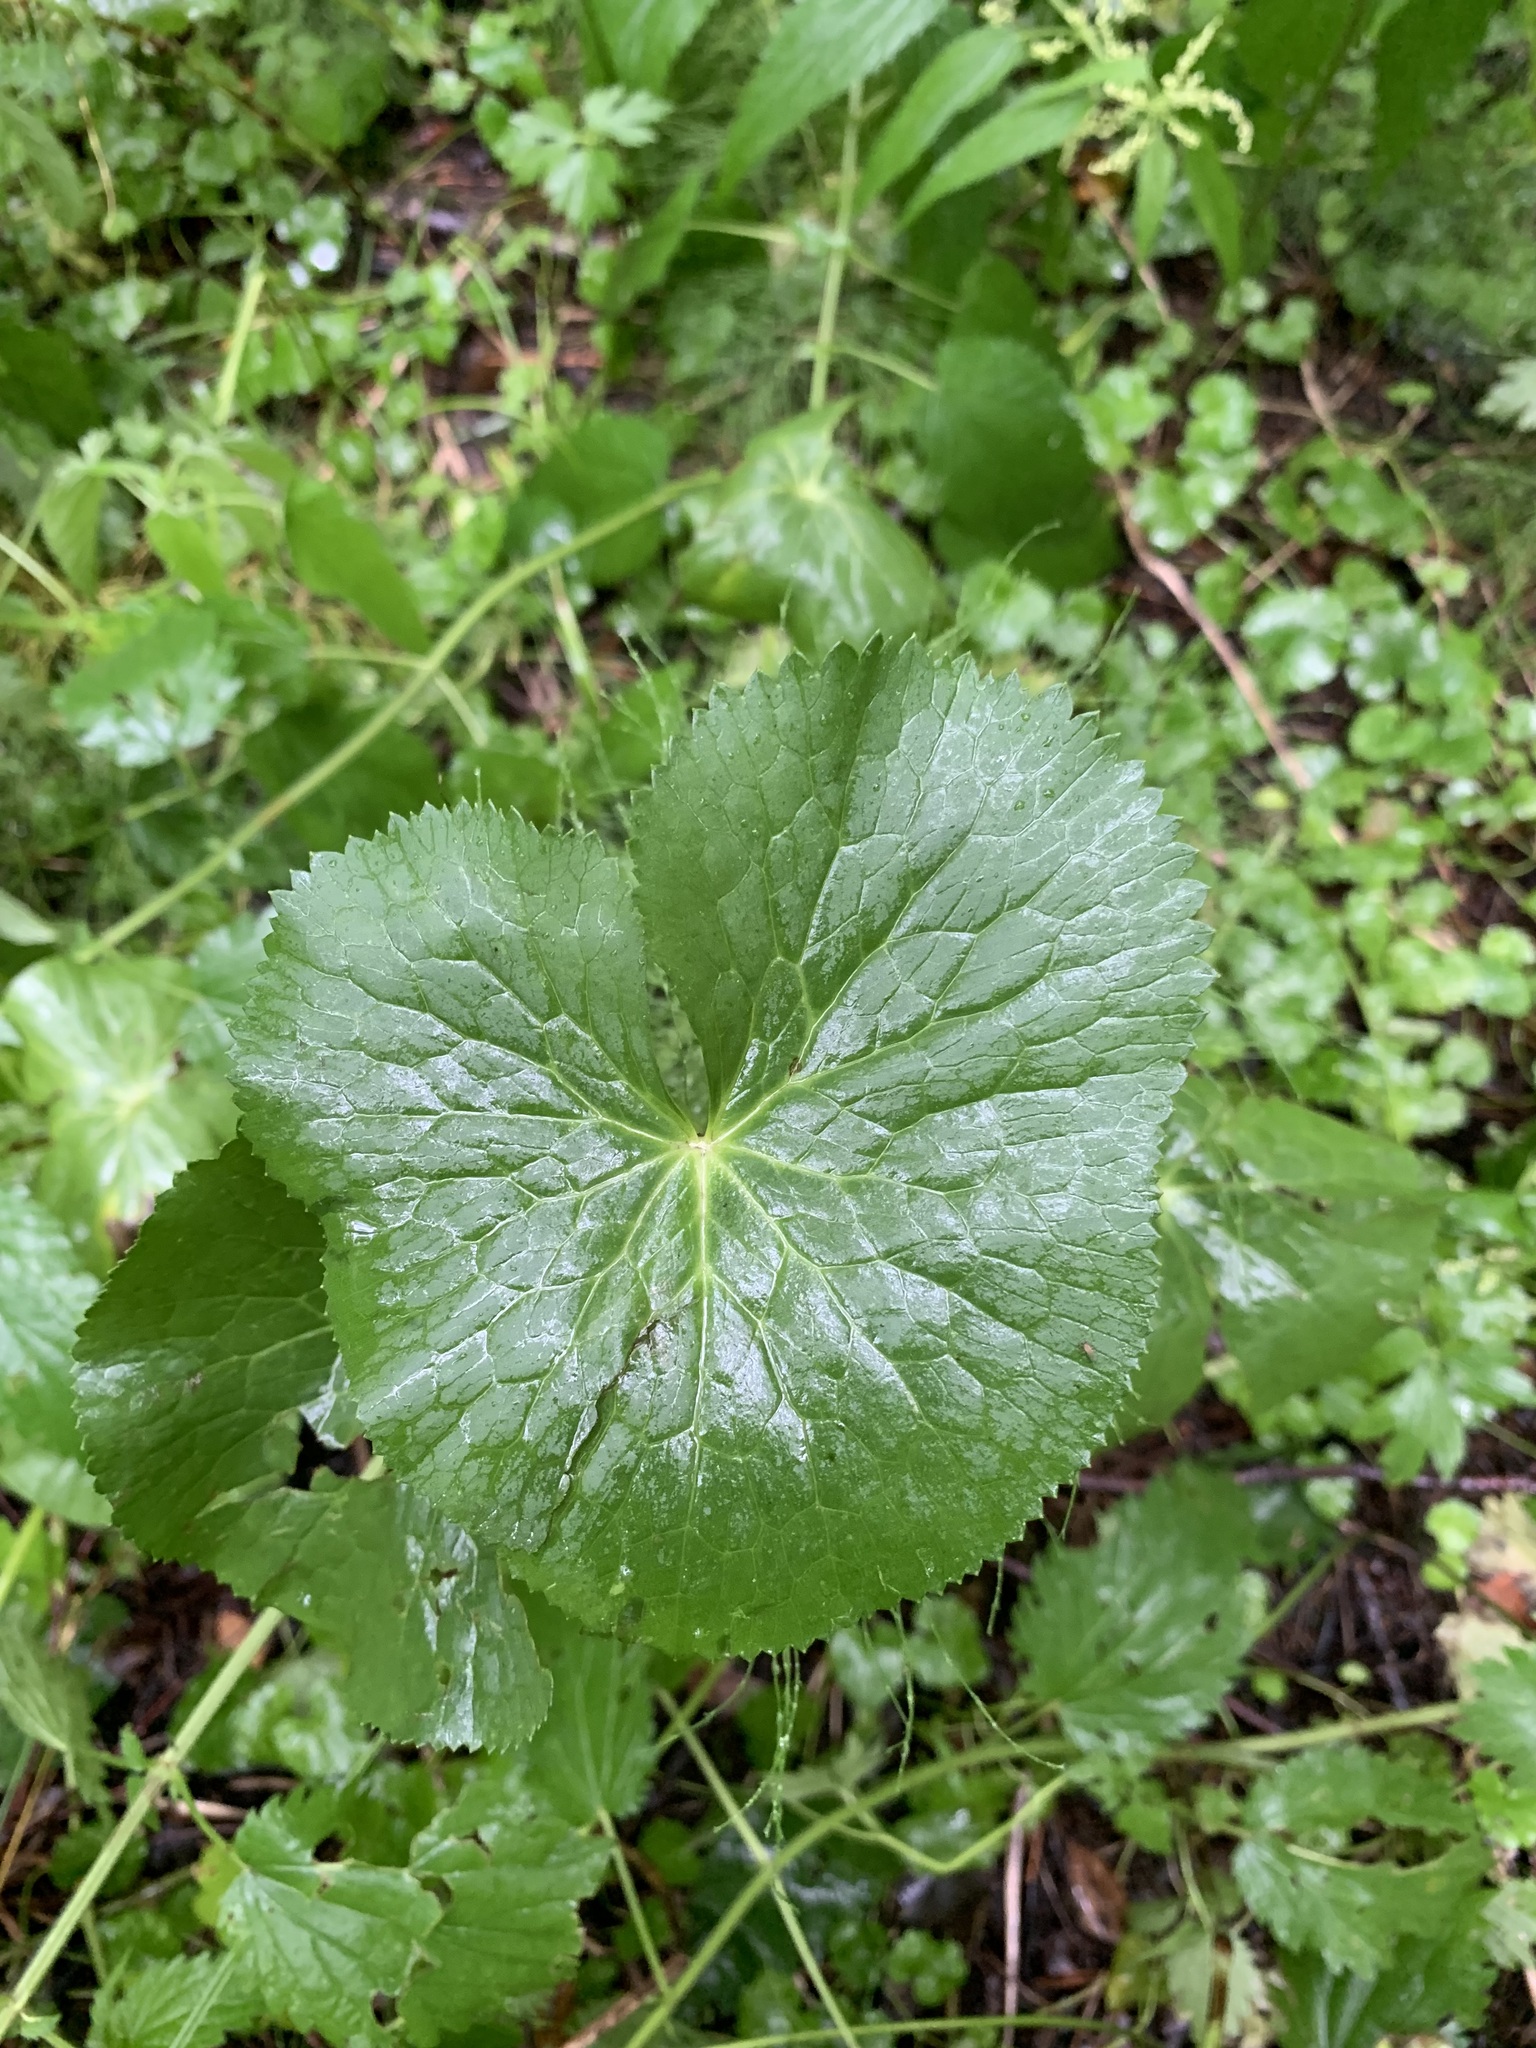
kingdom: Plantae
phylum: Tracheophyta
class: Magnoliopsida
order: Ranunculales
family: Ranunculaceae
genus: Caltha
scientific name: Caltha palustris
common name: Marsh marigold
